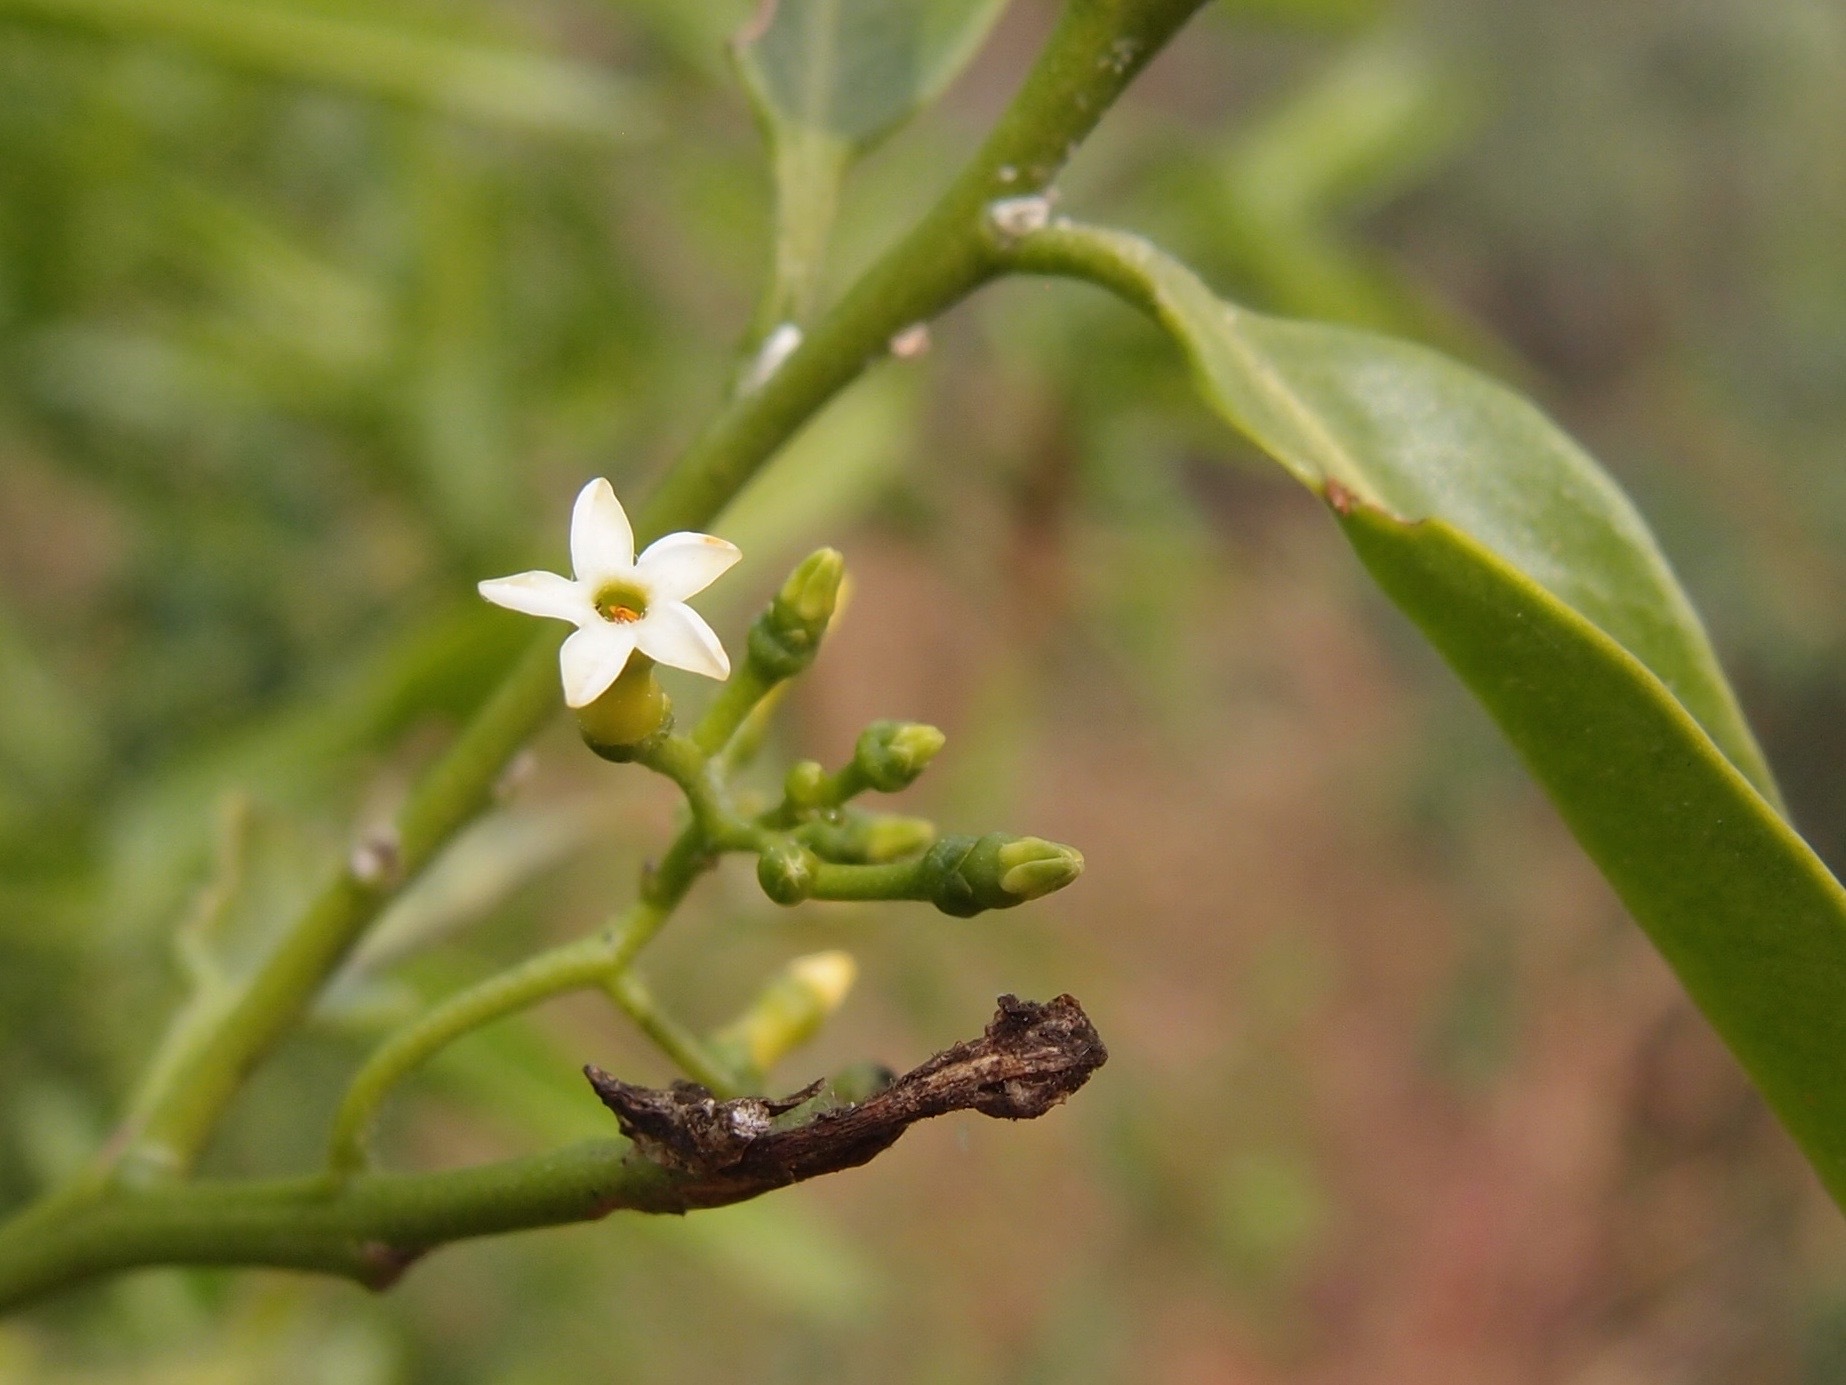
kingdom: Plantae
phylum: Tracheophyta
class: Magnoliopsida
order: Gentianales
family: Apocynaceae
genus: Vallesia
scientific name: Vallesia glabra
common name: Pearlberry
